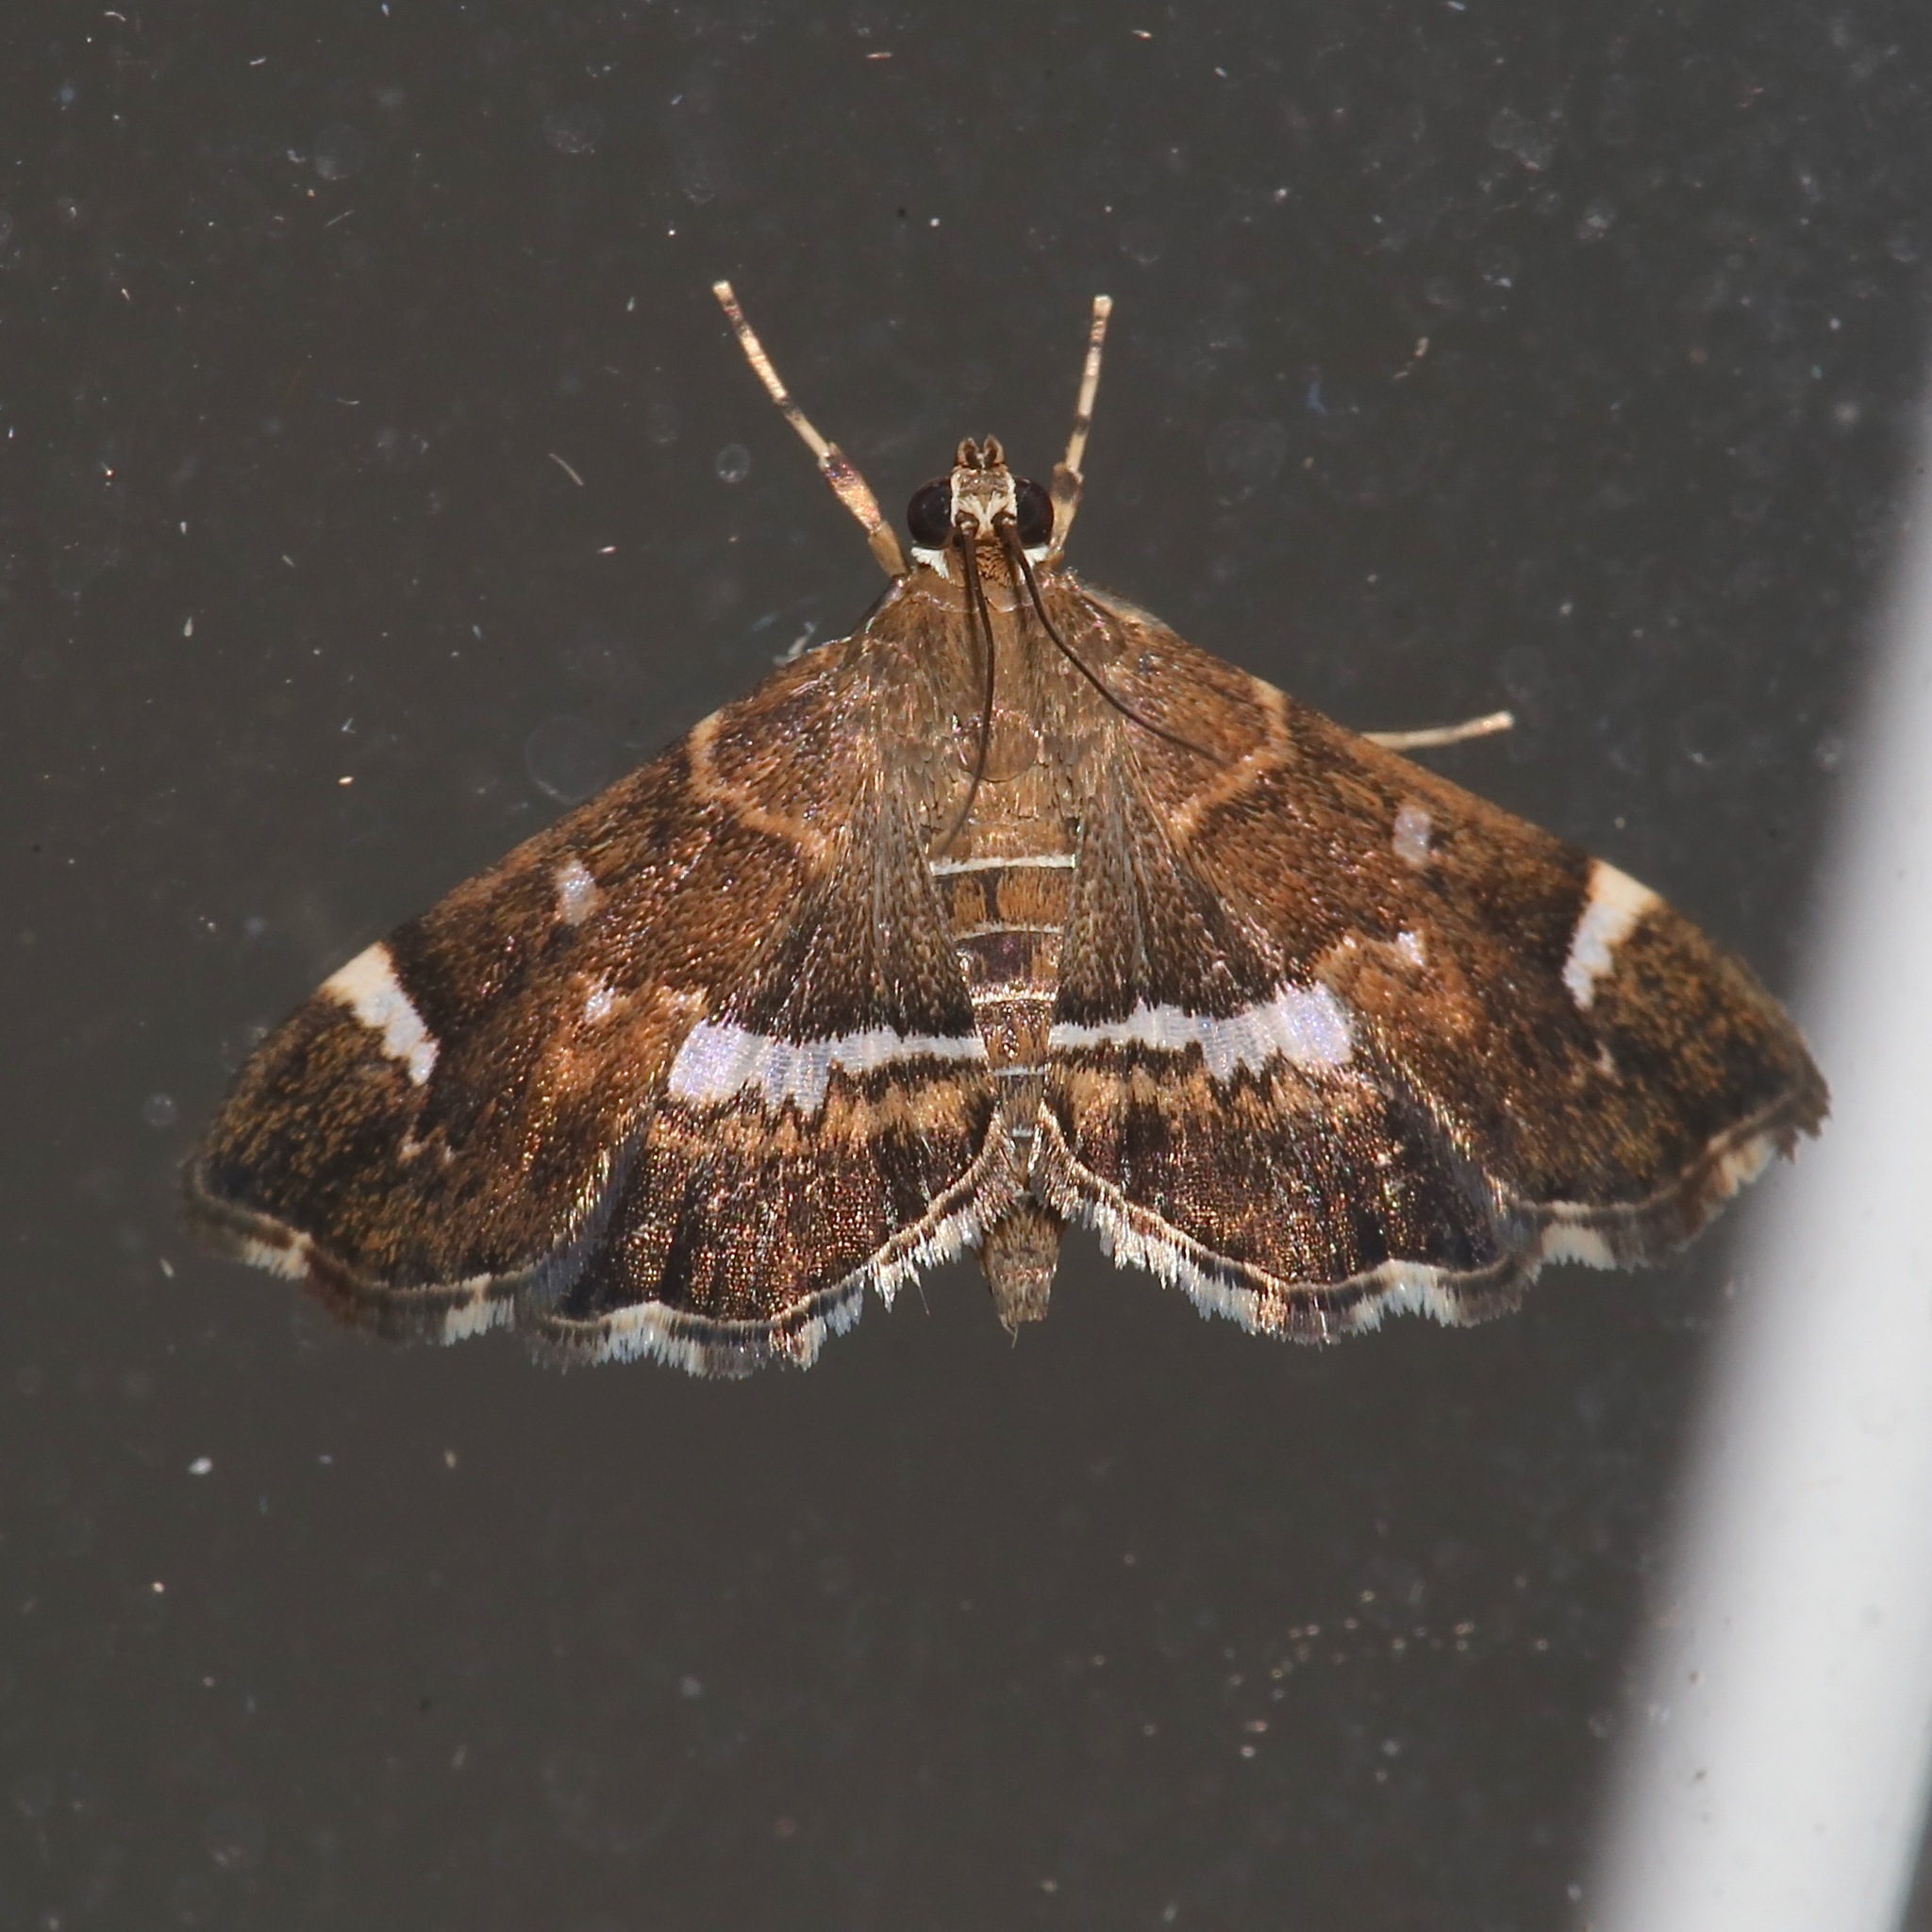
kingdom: Animalia
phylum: Arthropoda
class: Insecta
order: Lepidoptera
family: Crambidae
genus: Hymenia
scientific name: Hymenia perspectalis
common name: Spotted beet webworm
